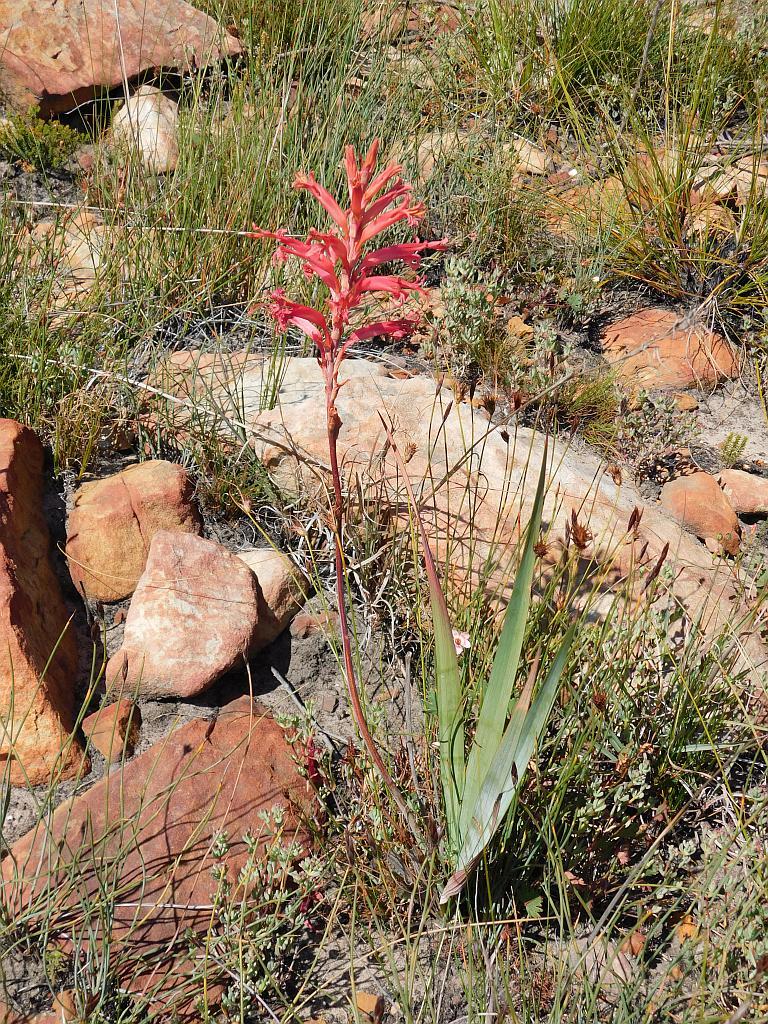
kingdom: Plantae
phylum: Tracheophyta
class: Liliopsida
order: Asparagales
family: Iridaceae
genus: Tritoniopsis
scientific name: Tritoniopsis antholyza
